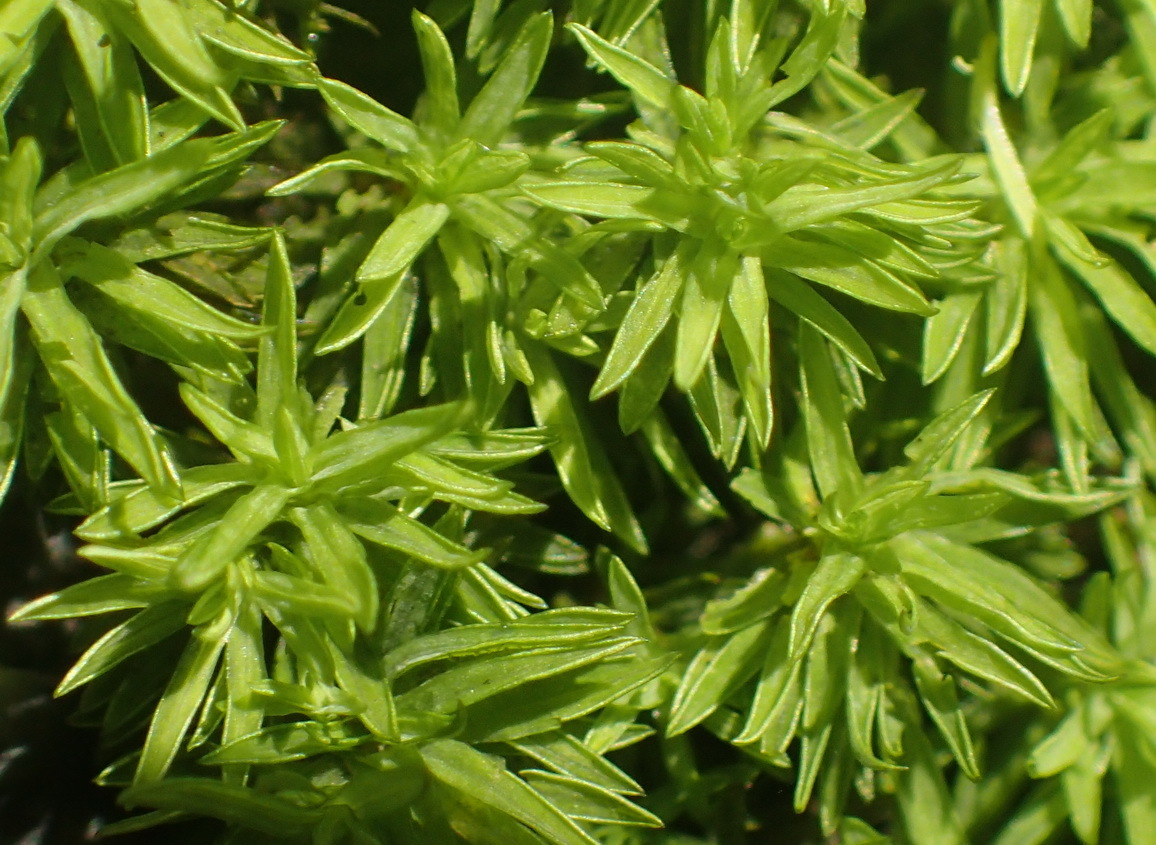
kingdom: Plantae
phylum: Bryophyta
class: Bryopsida
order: Dicranales
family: Hypodontiaceae
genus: Hypodontium
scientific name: Hypodontium pomiforme
